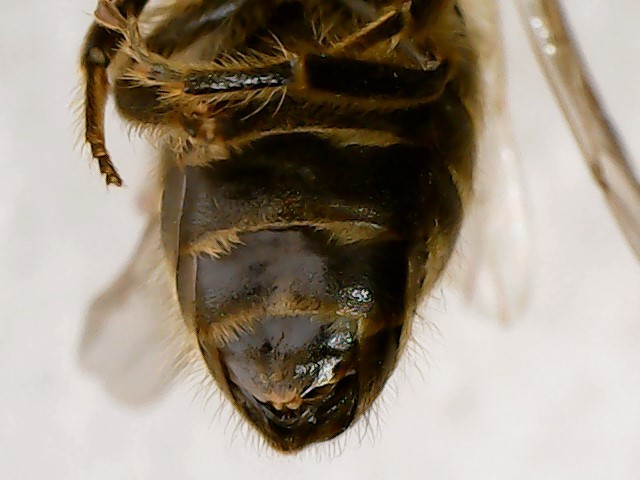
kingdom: Animalia
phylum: Arthropoda
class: Insecta
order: Hymenoptera
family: Colletidae
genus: Colletes
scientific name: Colletes inaequalis
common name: Unequal cellophane bee
